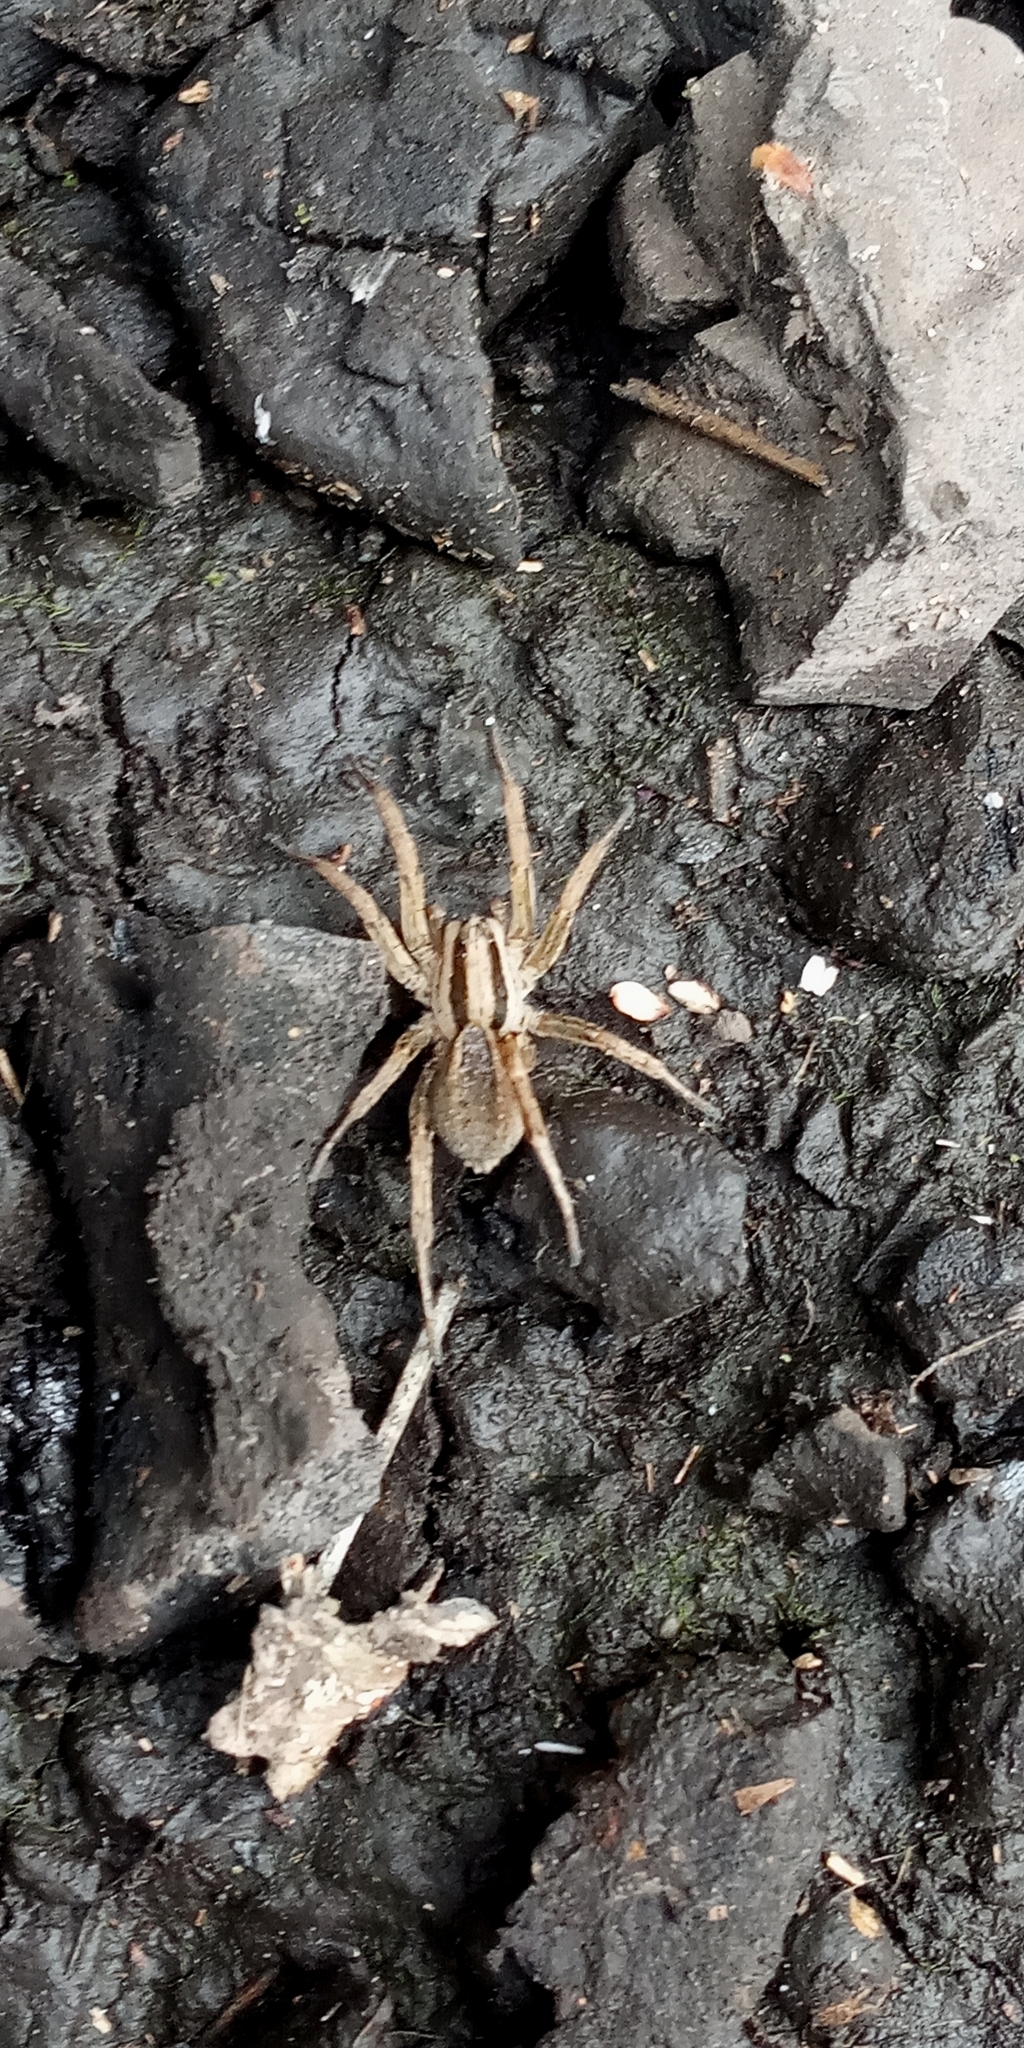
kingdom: Animalia
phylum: Arthropoda
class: Arachnida
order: Araneae
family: Lycosidae
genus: Hogna
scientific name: Hogna bivittata
